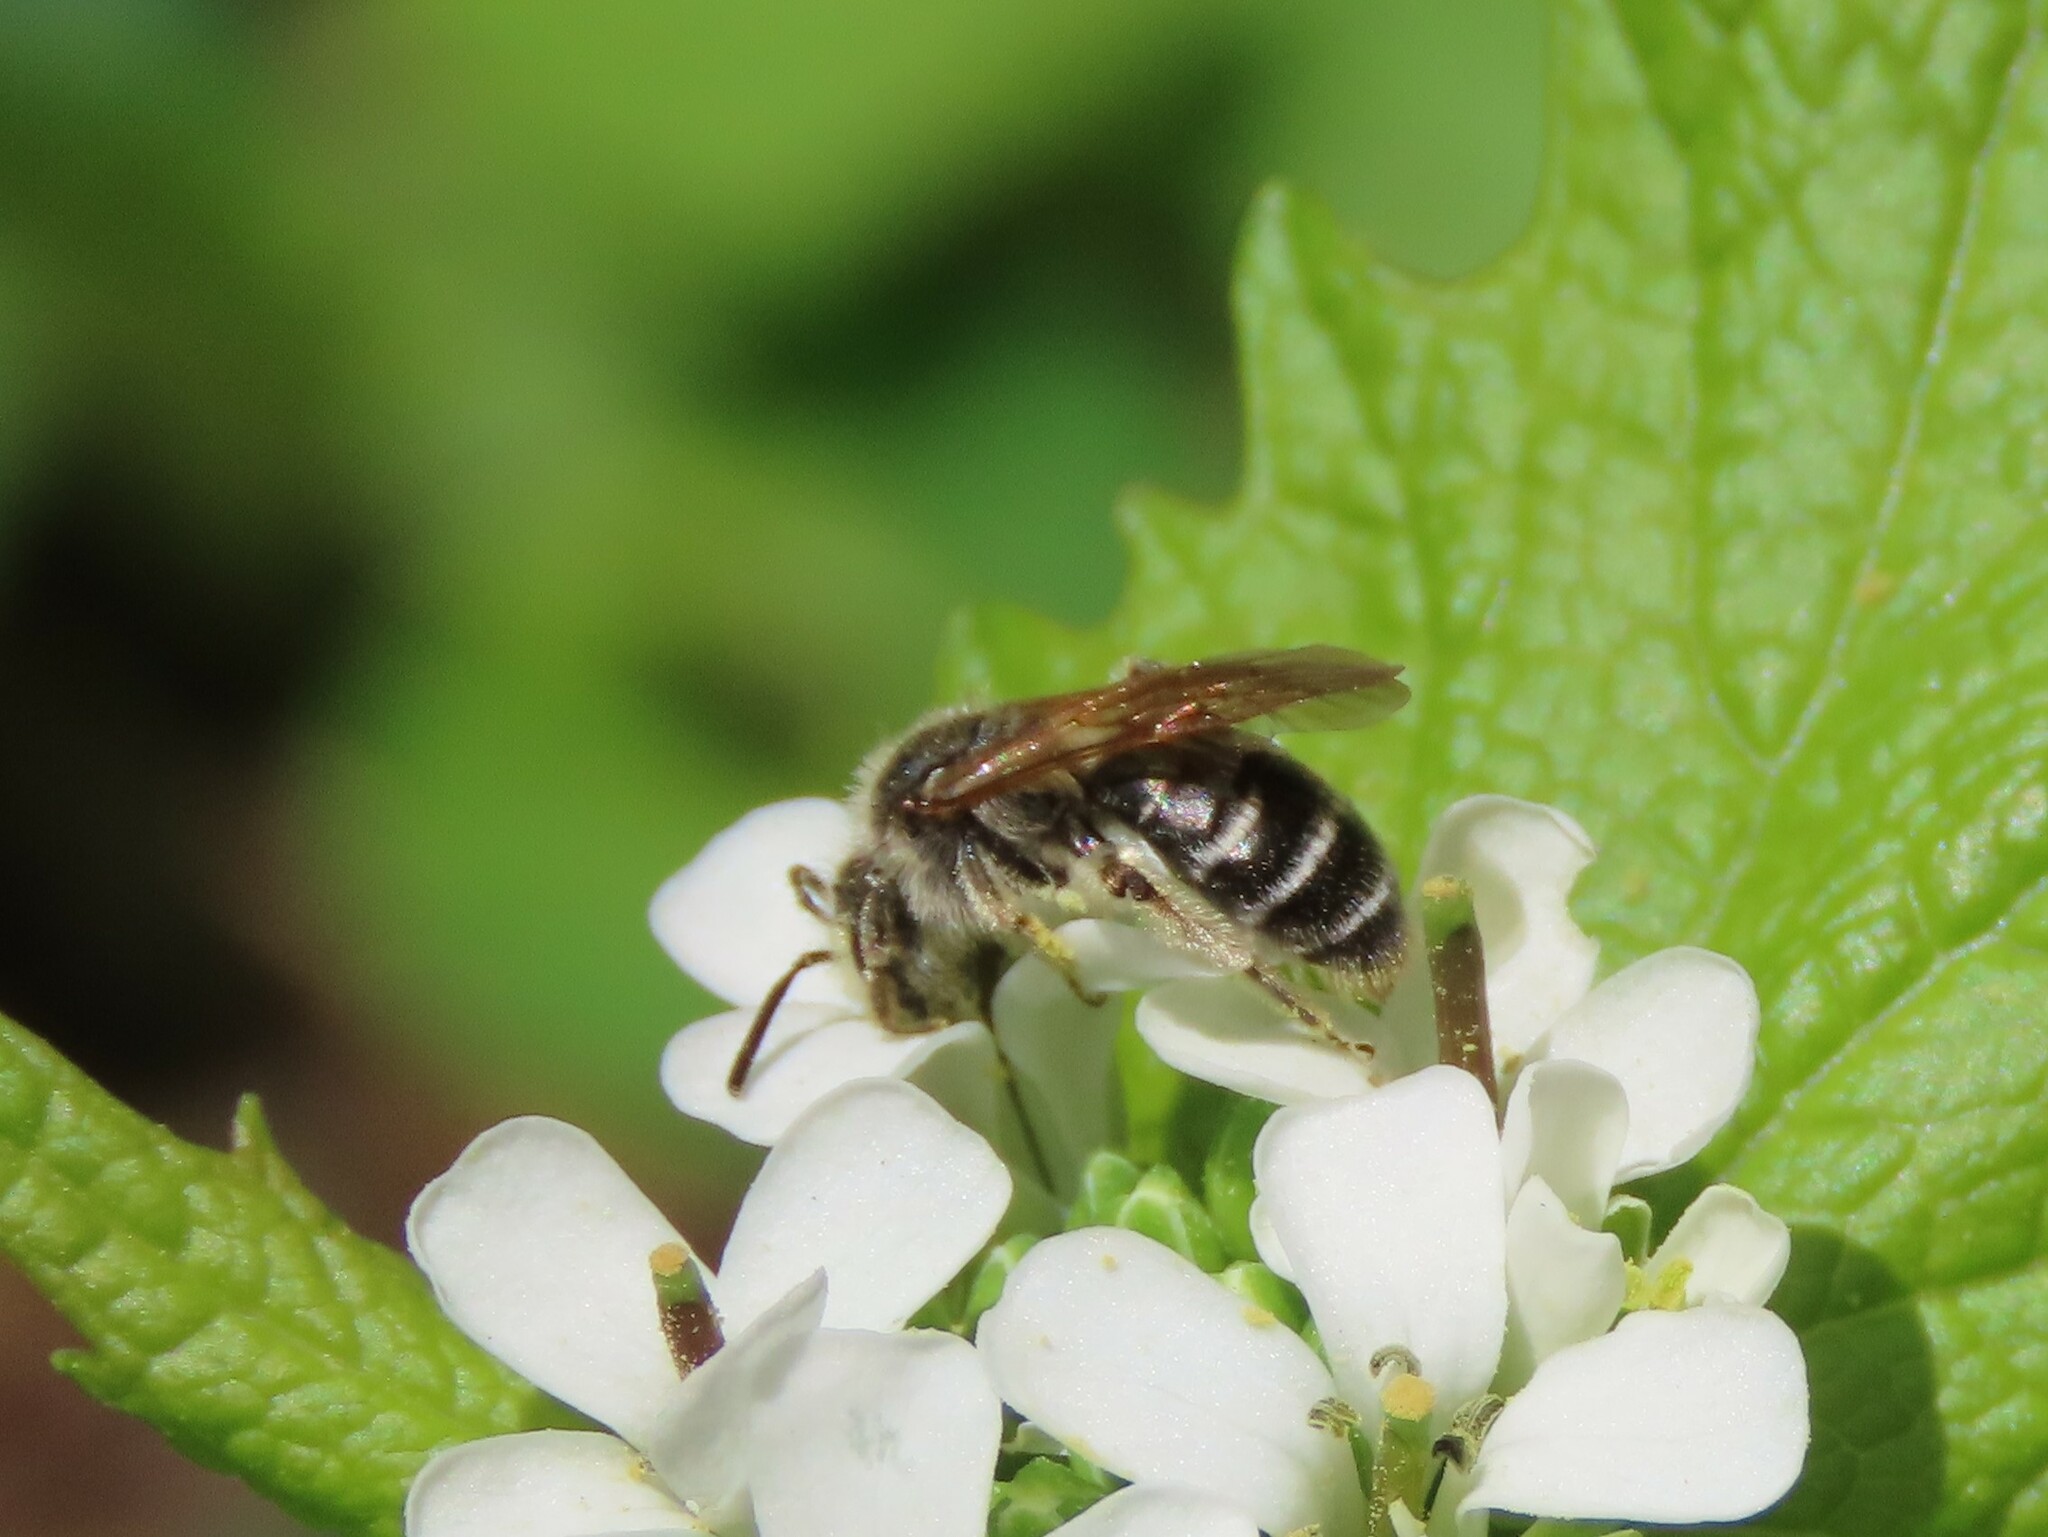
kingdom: Animalia
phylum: Arthropoda
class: Insecta
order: Hymenoptera
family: Andrenidae
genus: Andrena
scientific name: Andrena nasonii
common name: Nason's mining bee
